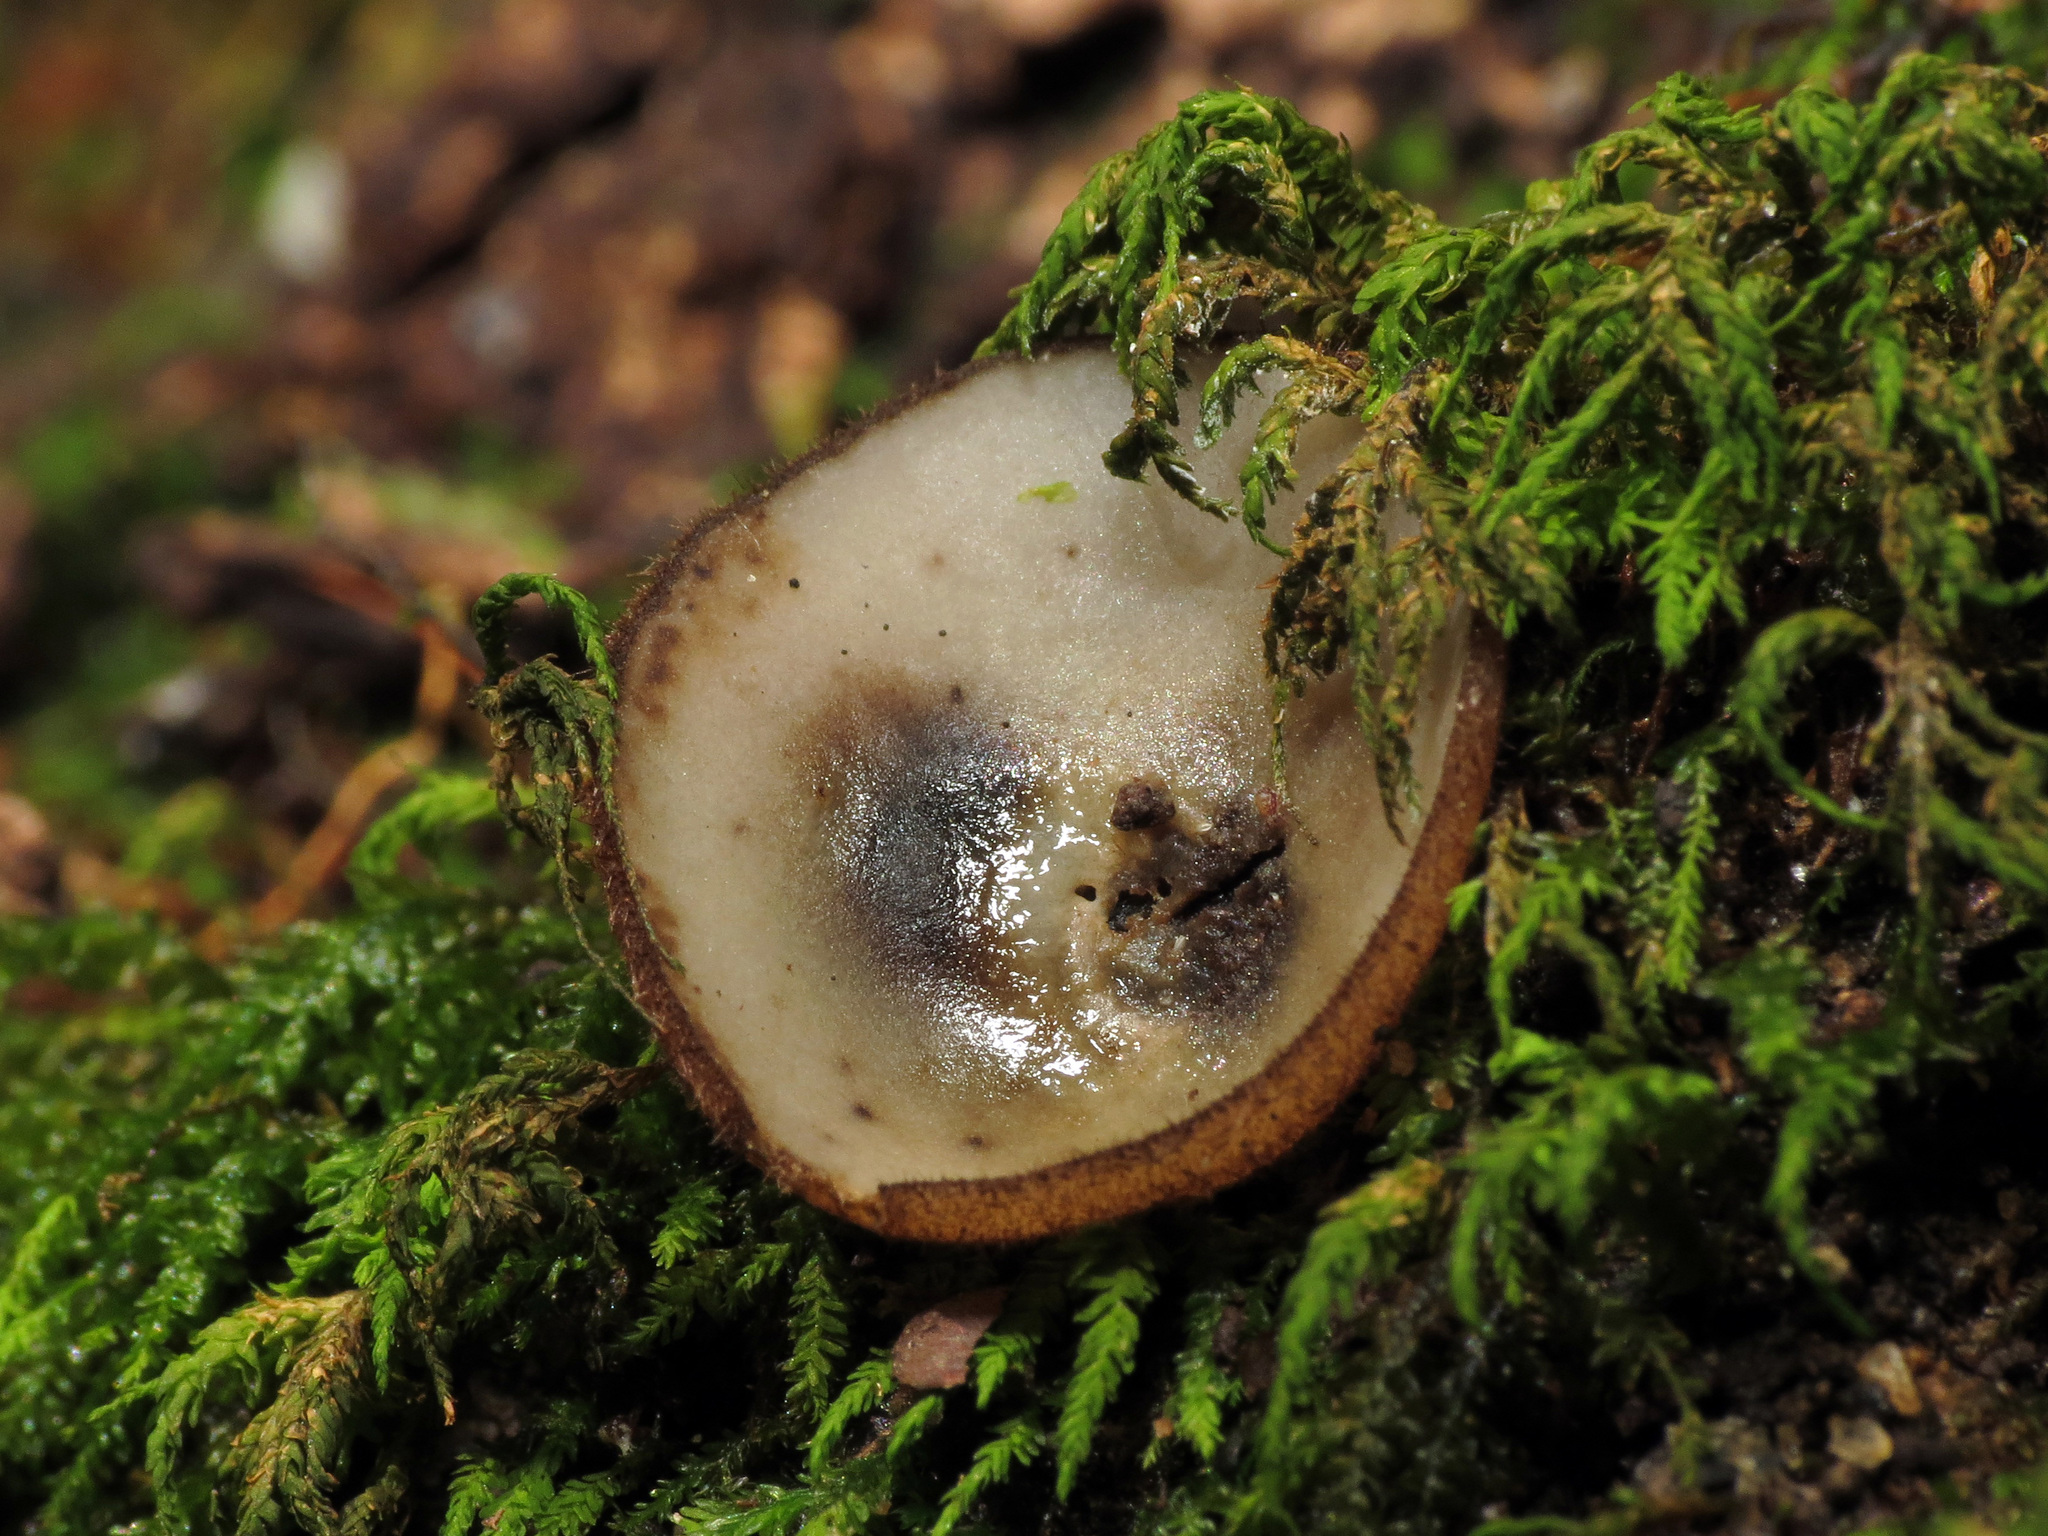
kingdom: Fungi
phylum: Ascomycota
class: Pezizomycetes
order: Pezizales
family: Pyronemataceae
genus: Humaria
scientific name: Humaria hemisphaerica
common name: Glazed cup
